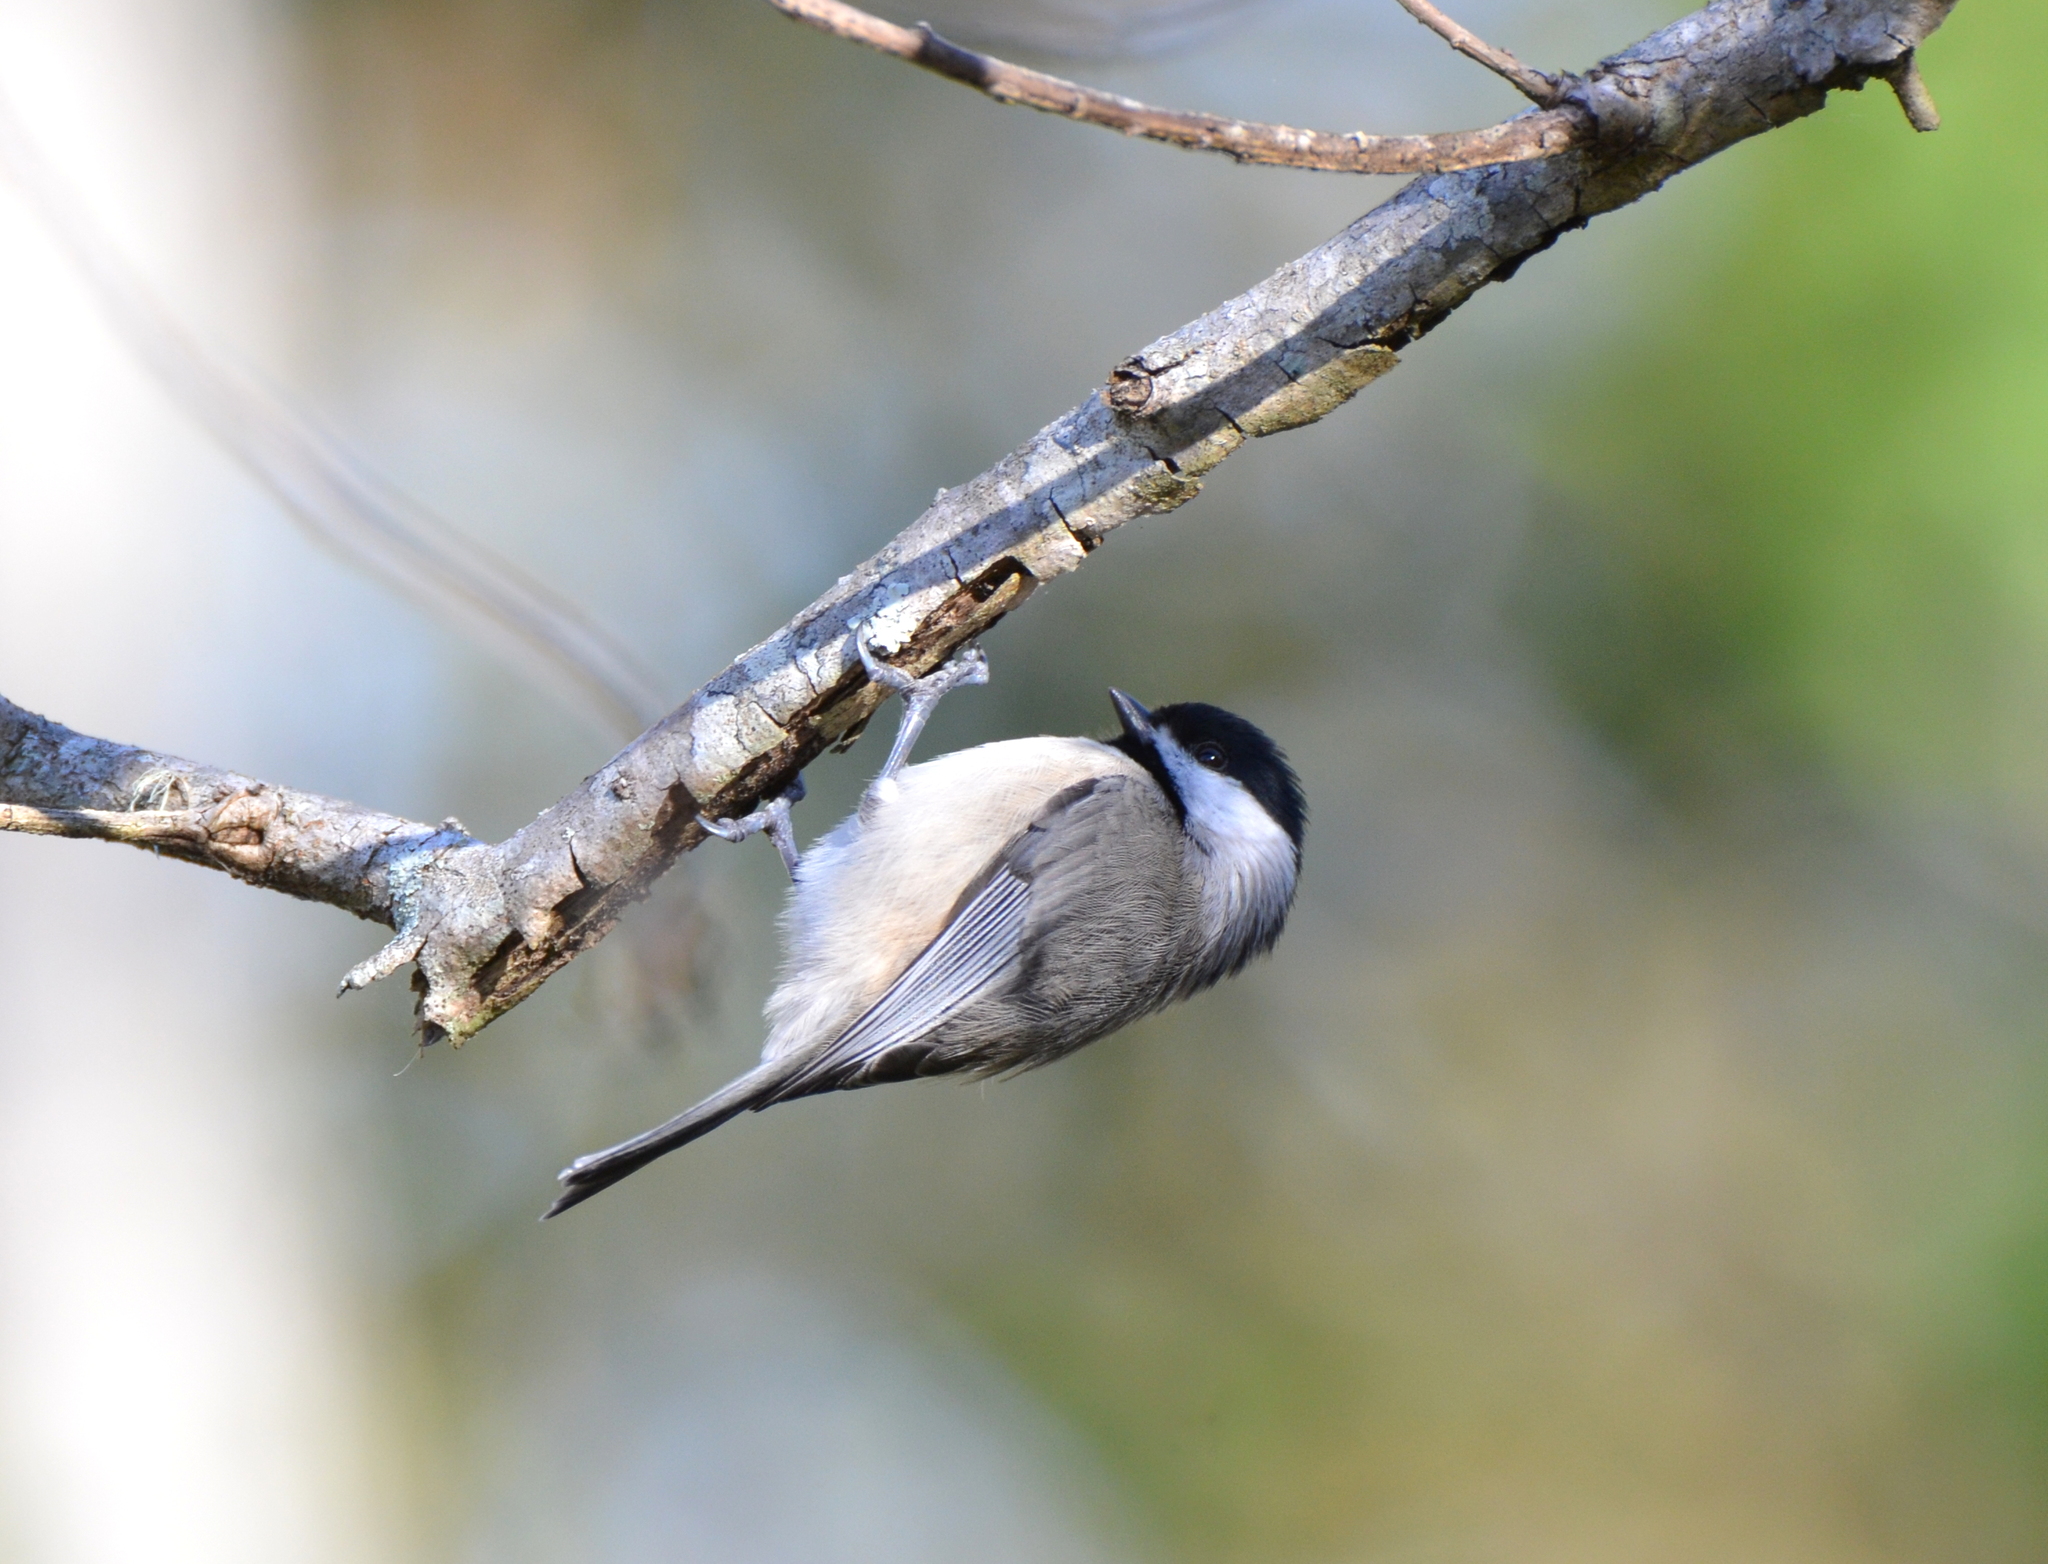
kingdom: Animalia
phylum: Chordata
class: Aves
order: Passeriformes
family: Paridae
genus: Poecile
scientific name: Poecile carolinensis
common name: Carolina chickadee
